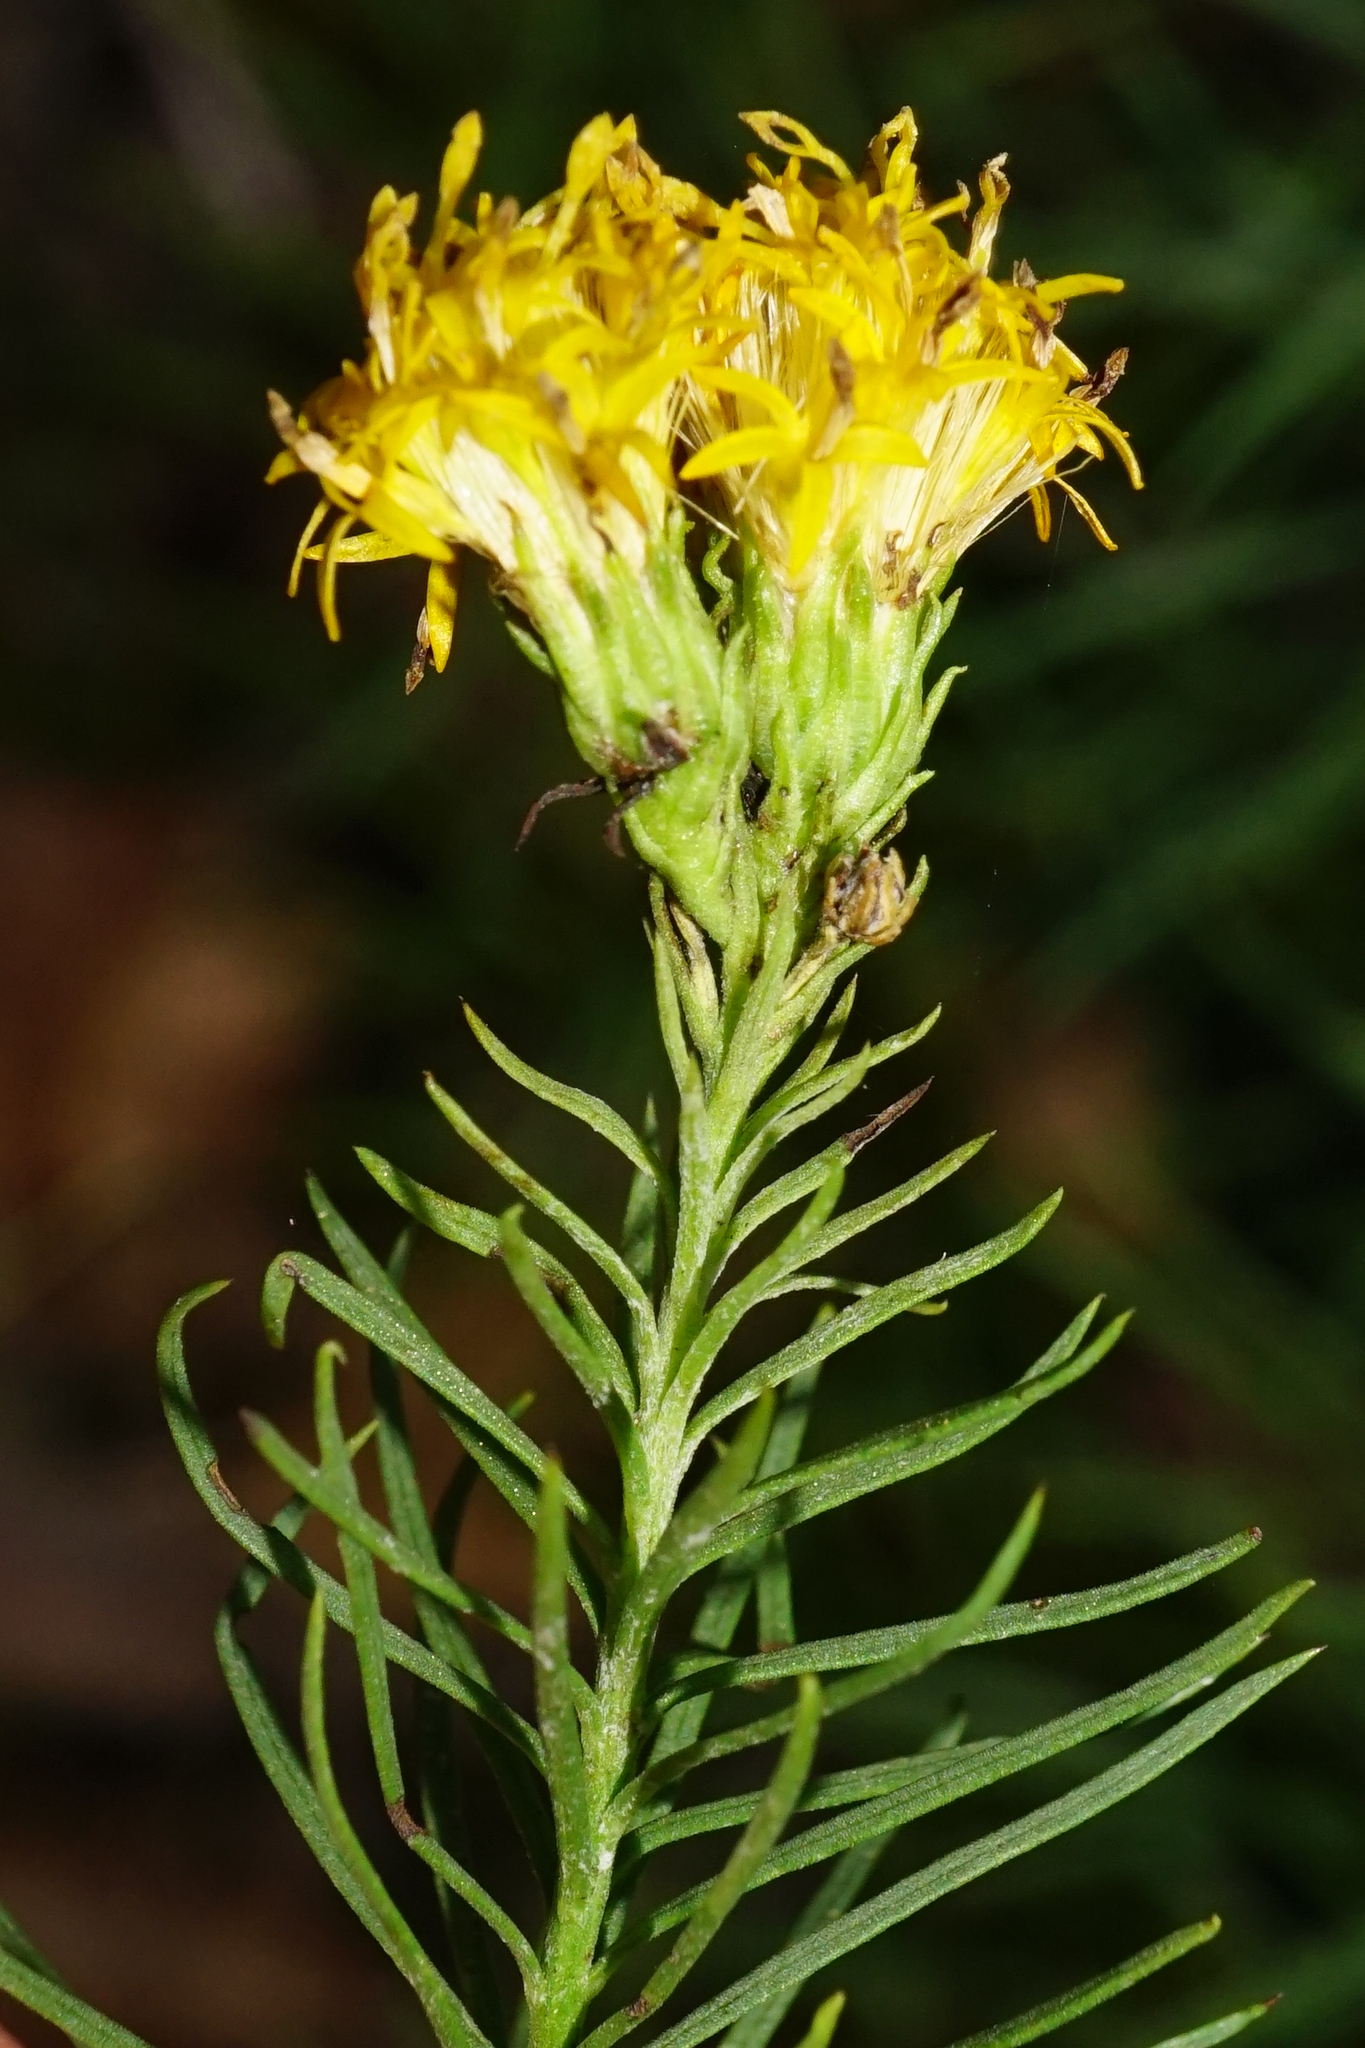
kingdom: Plantae
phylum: Tracheophyta
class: Magnoliopsida
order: Asterales
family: Asteraceae
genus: Galatella
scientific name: Galatella linosyris
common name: Goldilocks aster
